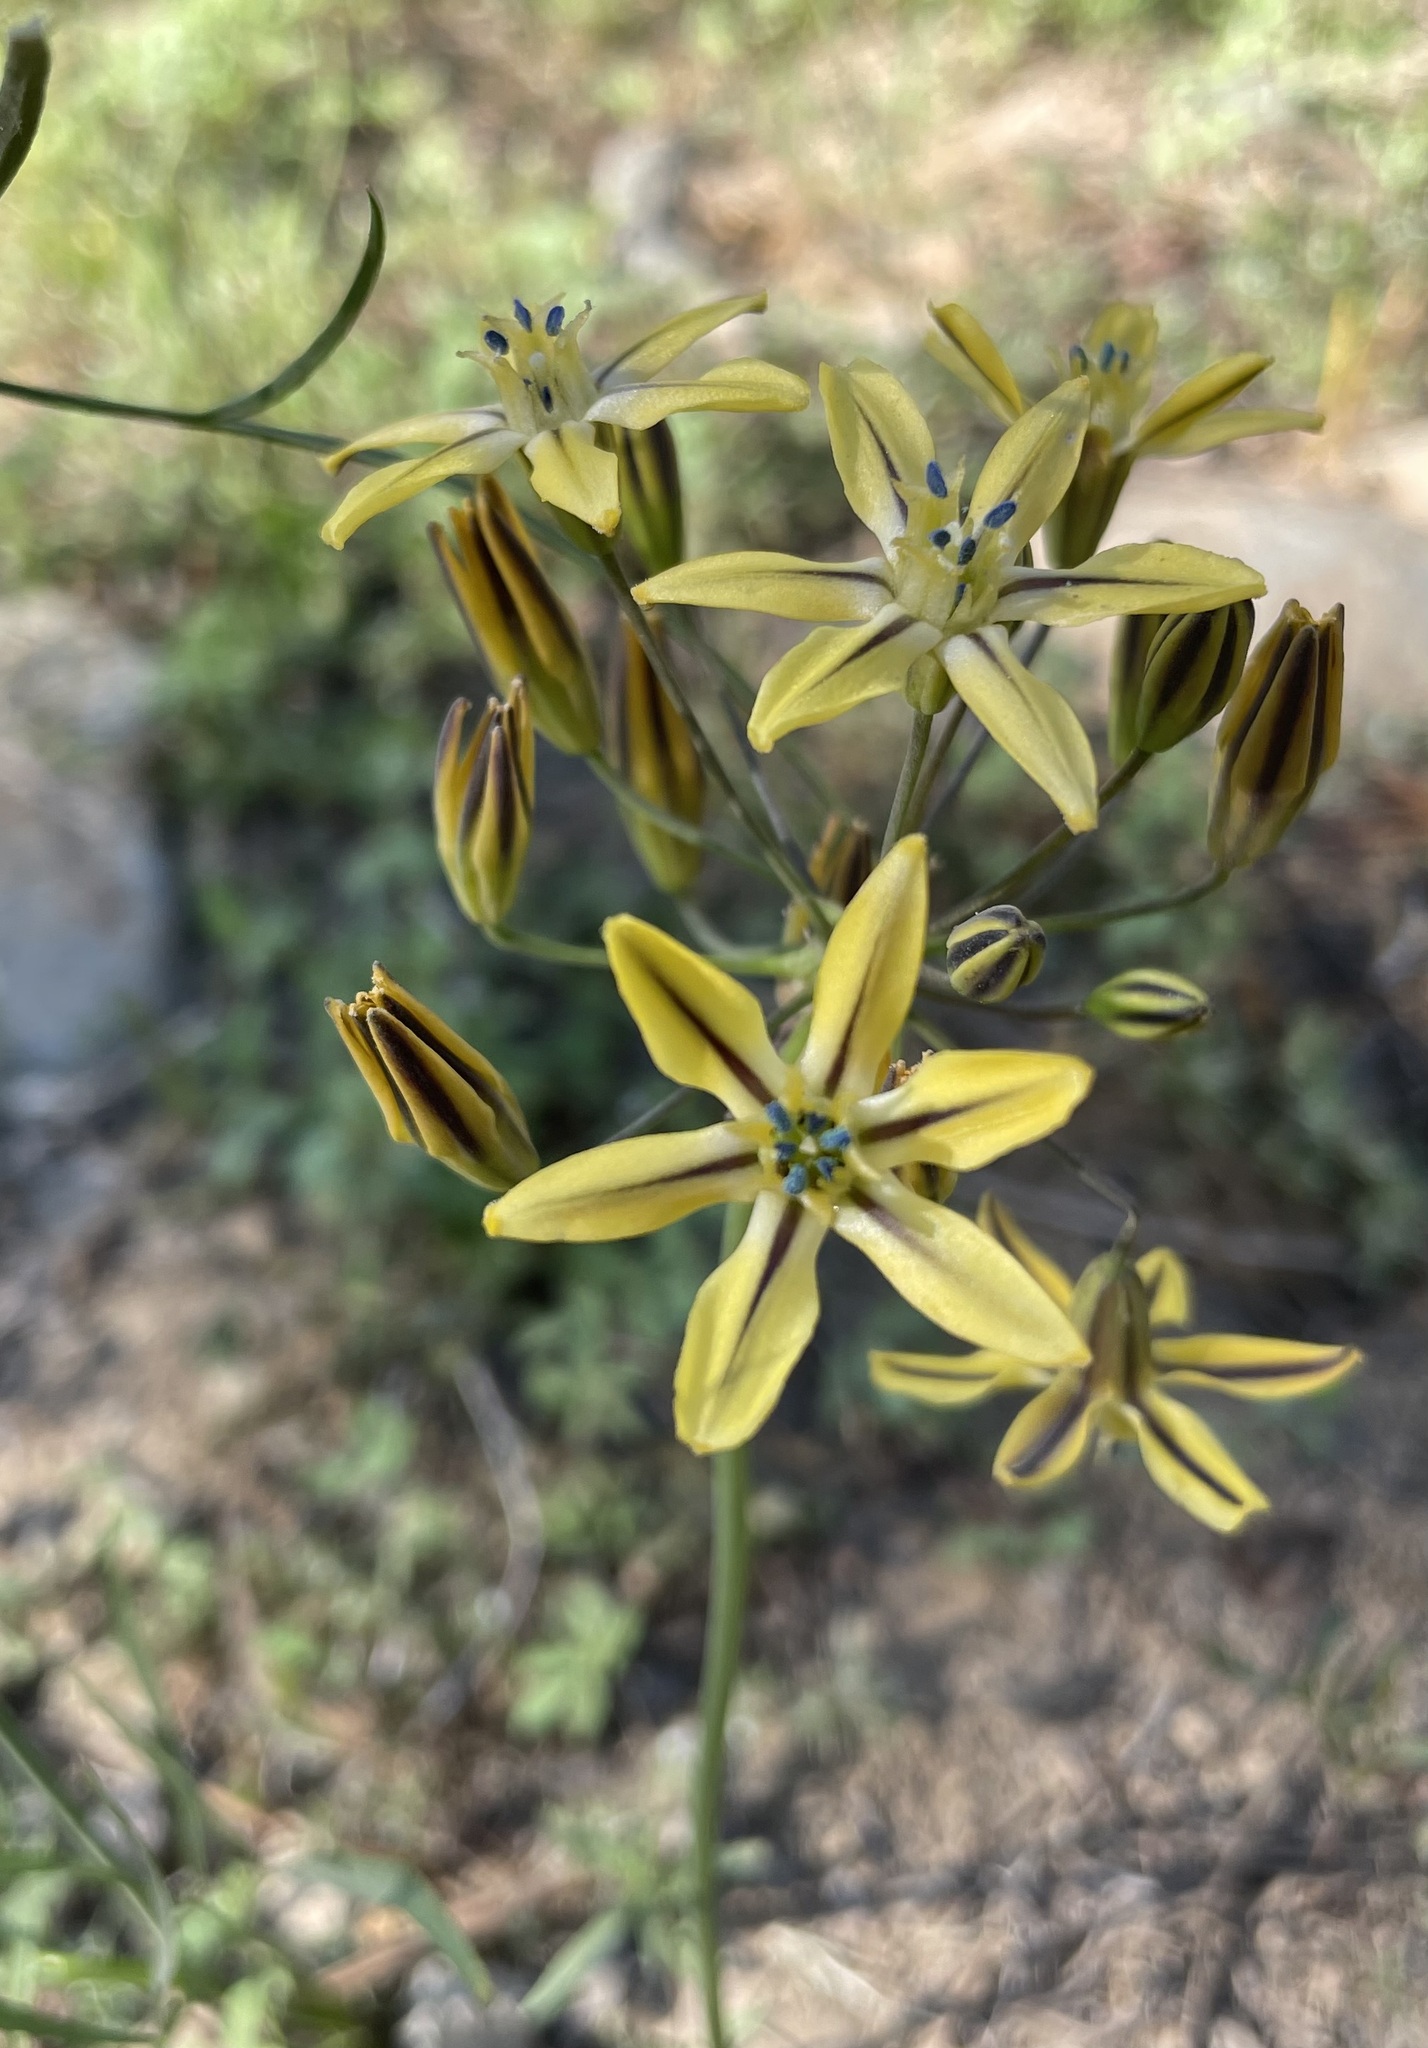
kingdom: Plantae
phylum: Tracheophyta
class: Liliopsida
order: Asparagales
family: Asparagaceae
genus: Triteleia
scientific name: Triteleia ixioides
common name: Yellow-brodiaea
